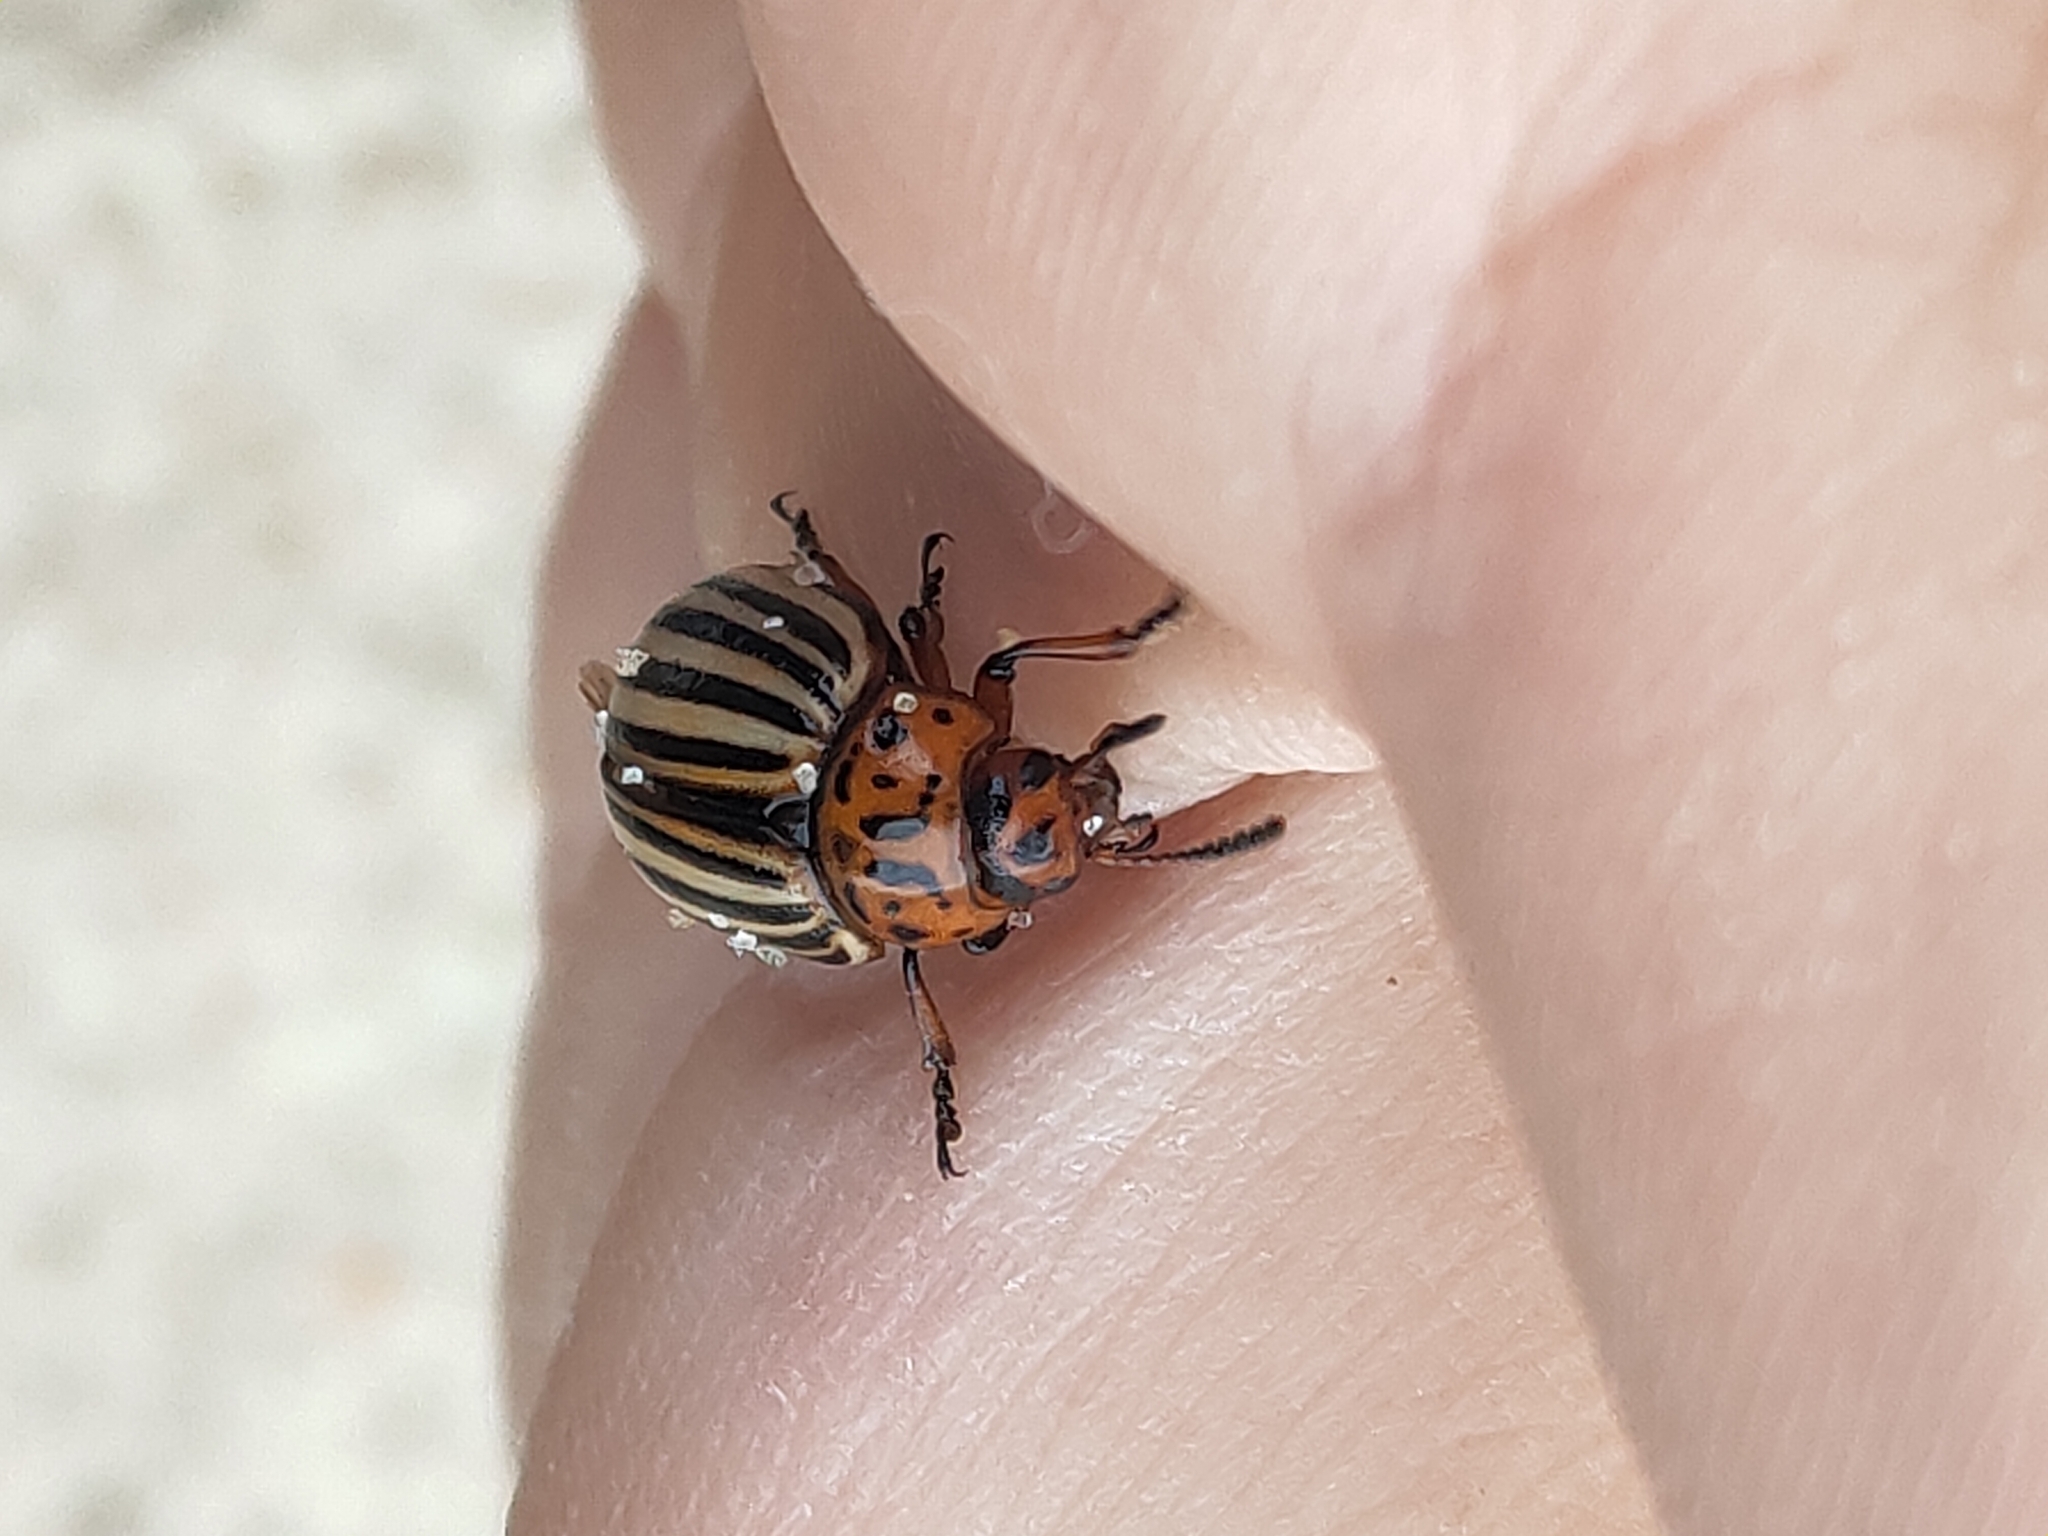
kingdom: Animalia
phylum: Arthropoda
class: Insecta
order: Coleoptera
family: Chrysomelidae
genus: Leptinotarsa
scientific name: Leptinotarsa decemlineata
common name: Colorado potato beetle
